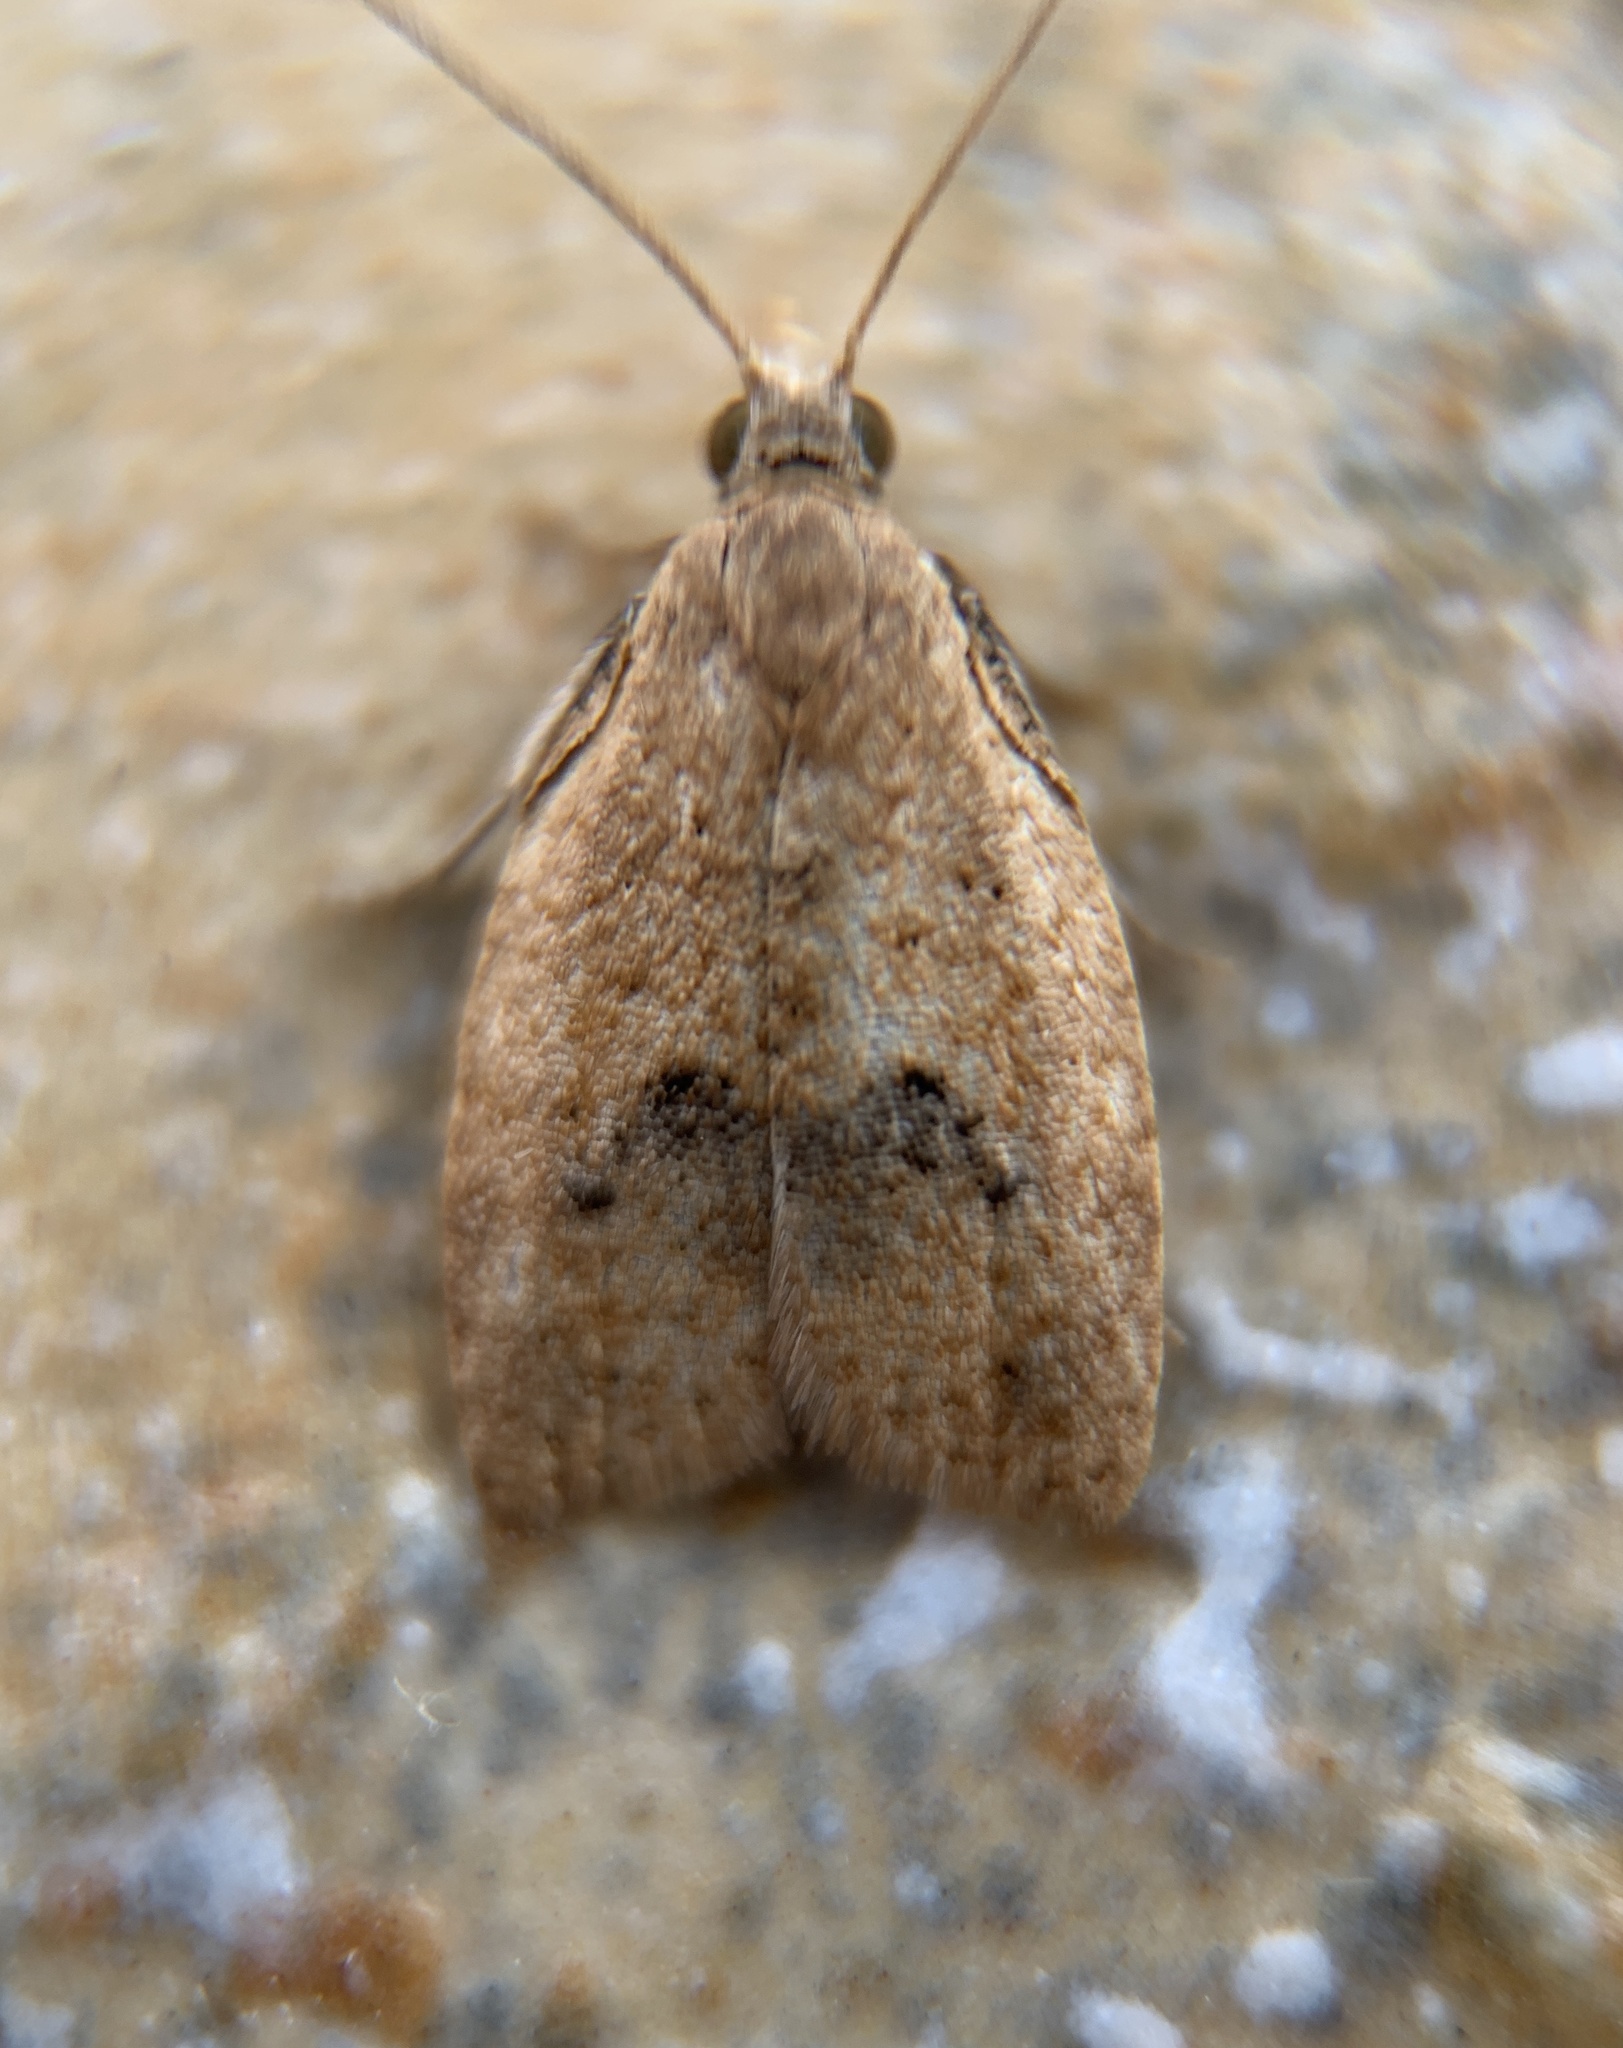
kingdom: Animalia
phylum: Arthropoda
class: Insecta
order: Lepidoptera
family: Tortricidae
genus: Sparganothoides
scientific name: Sparganothoides lentiginosana
